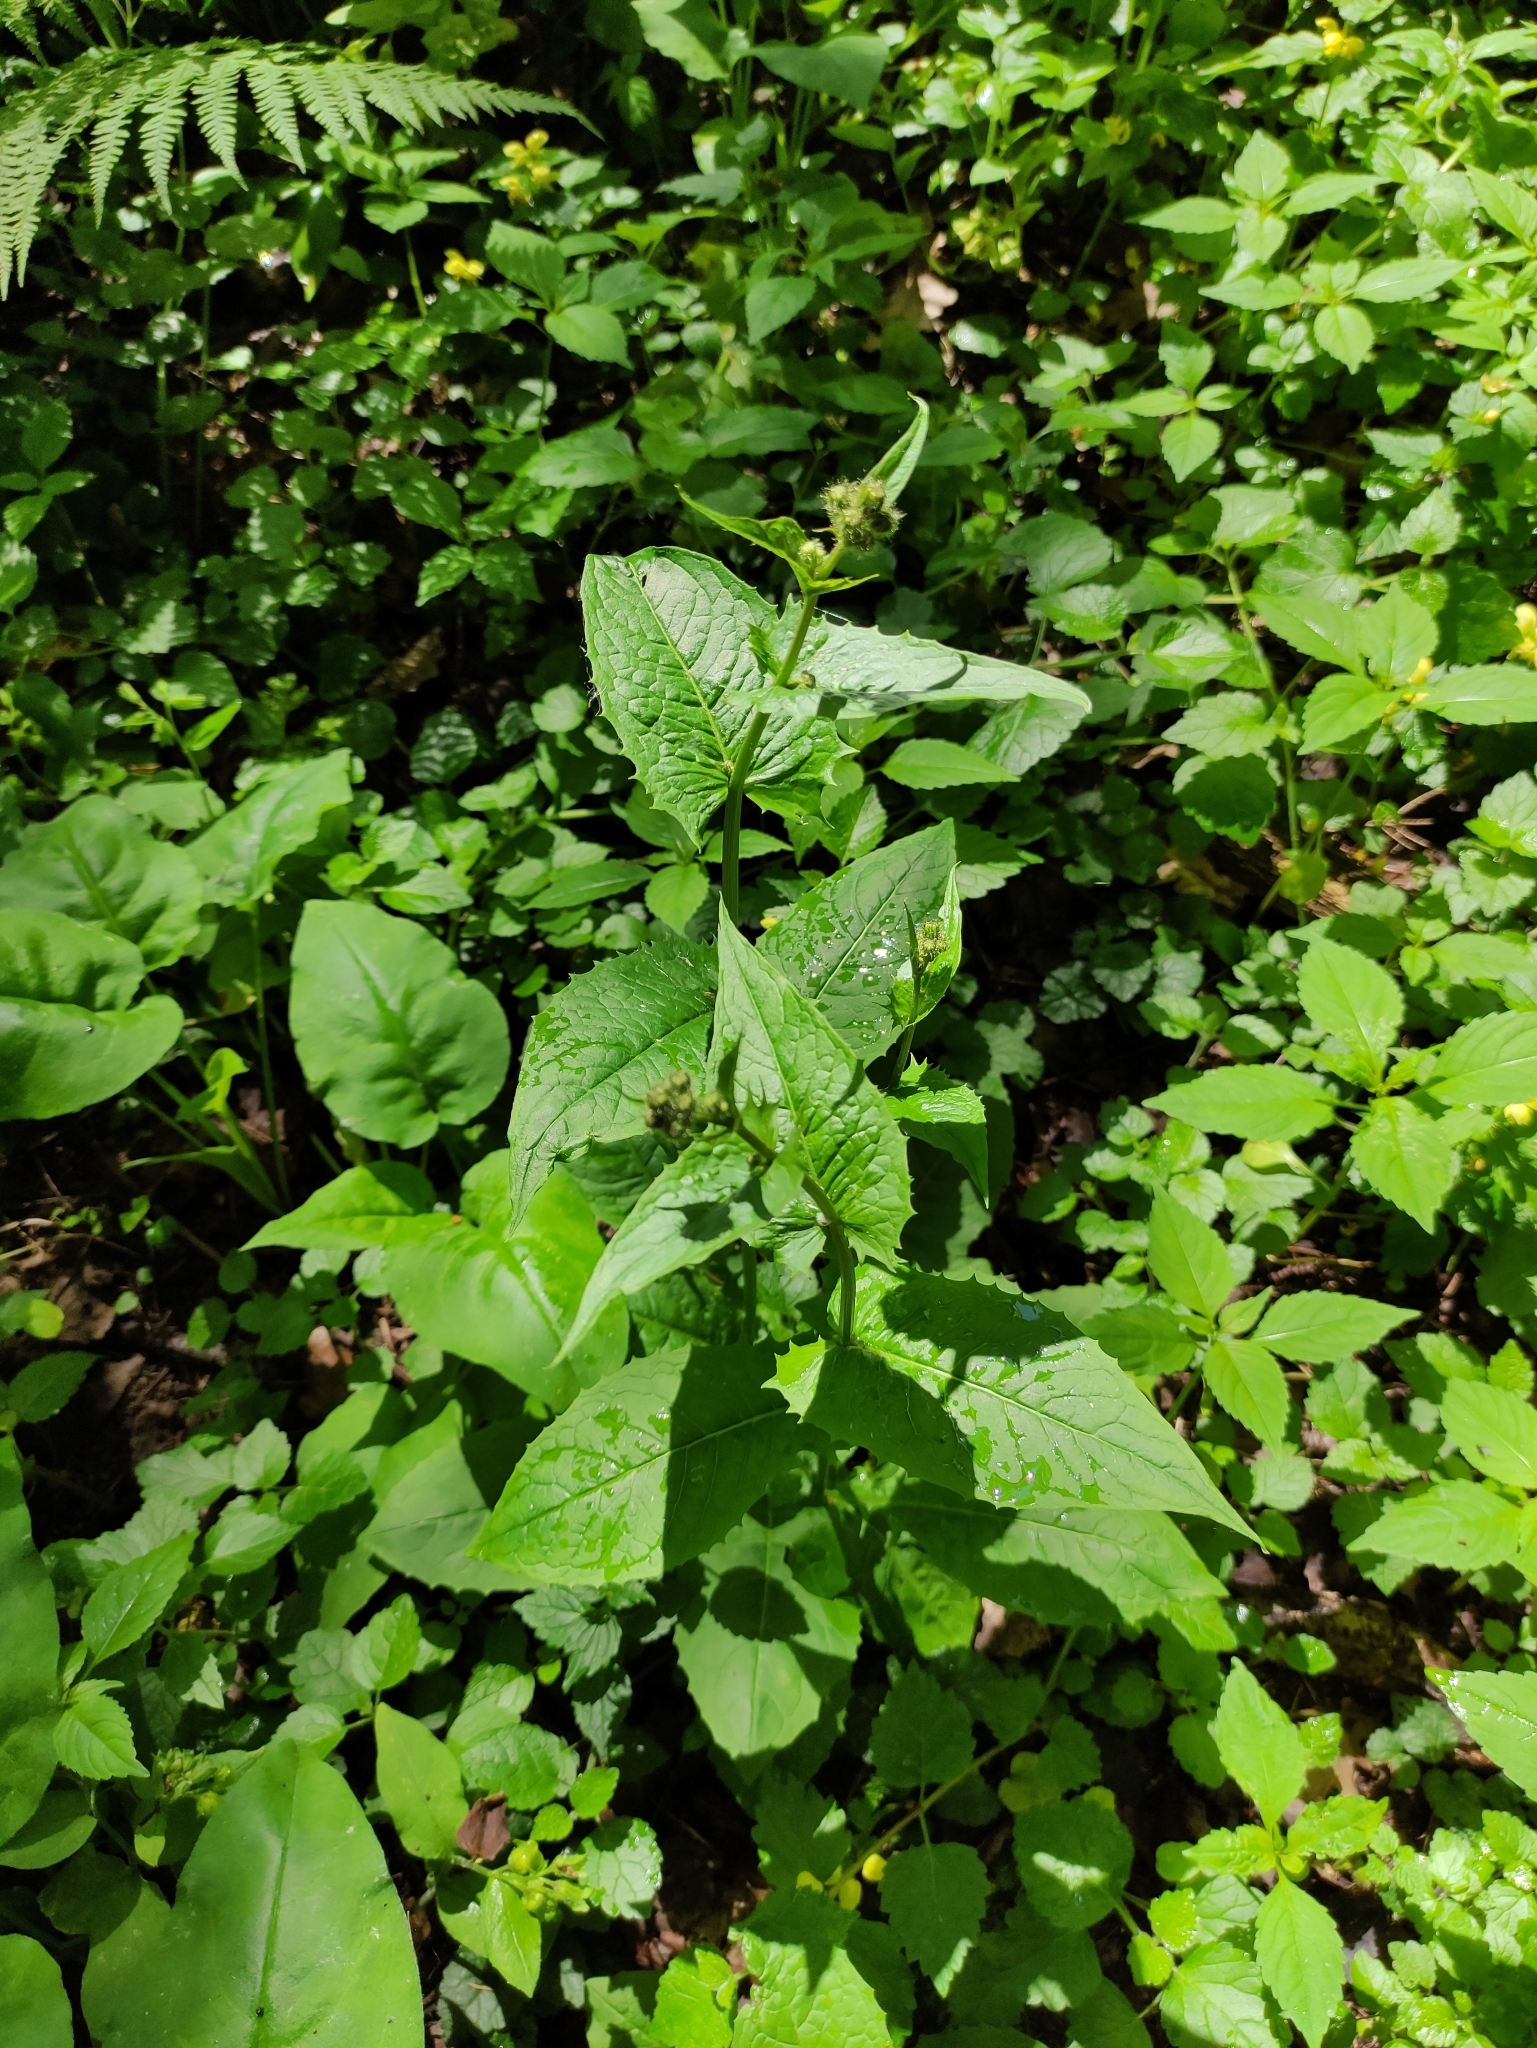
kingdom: Plantae
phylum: Tracheophyta
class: Magnoliopsida
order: Asterales
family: Asteraceae
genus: Crepis
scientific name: Crepis paludosa
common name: Marsh hawk's-beard
